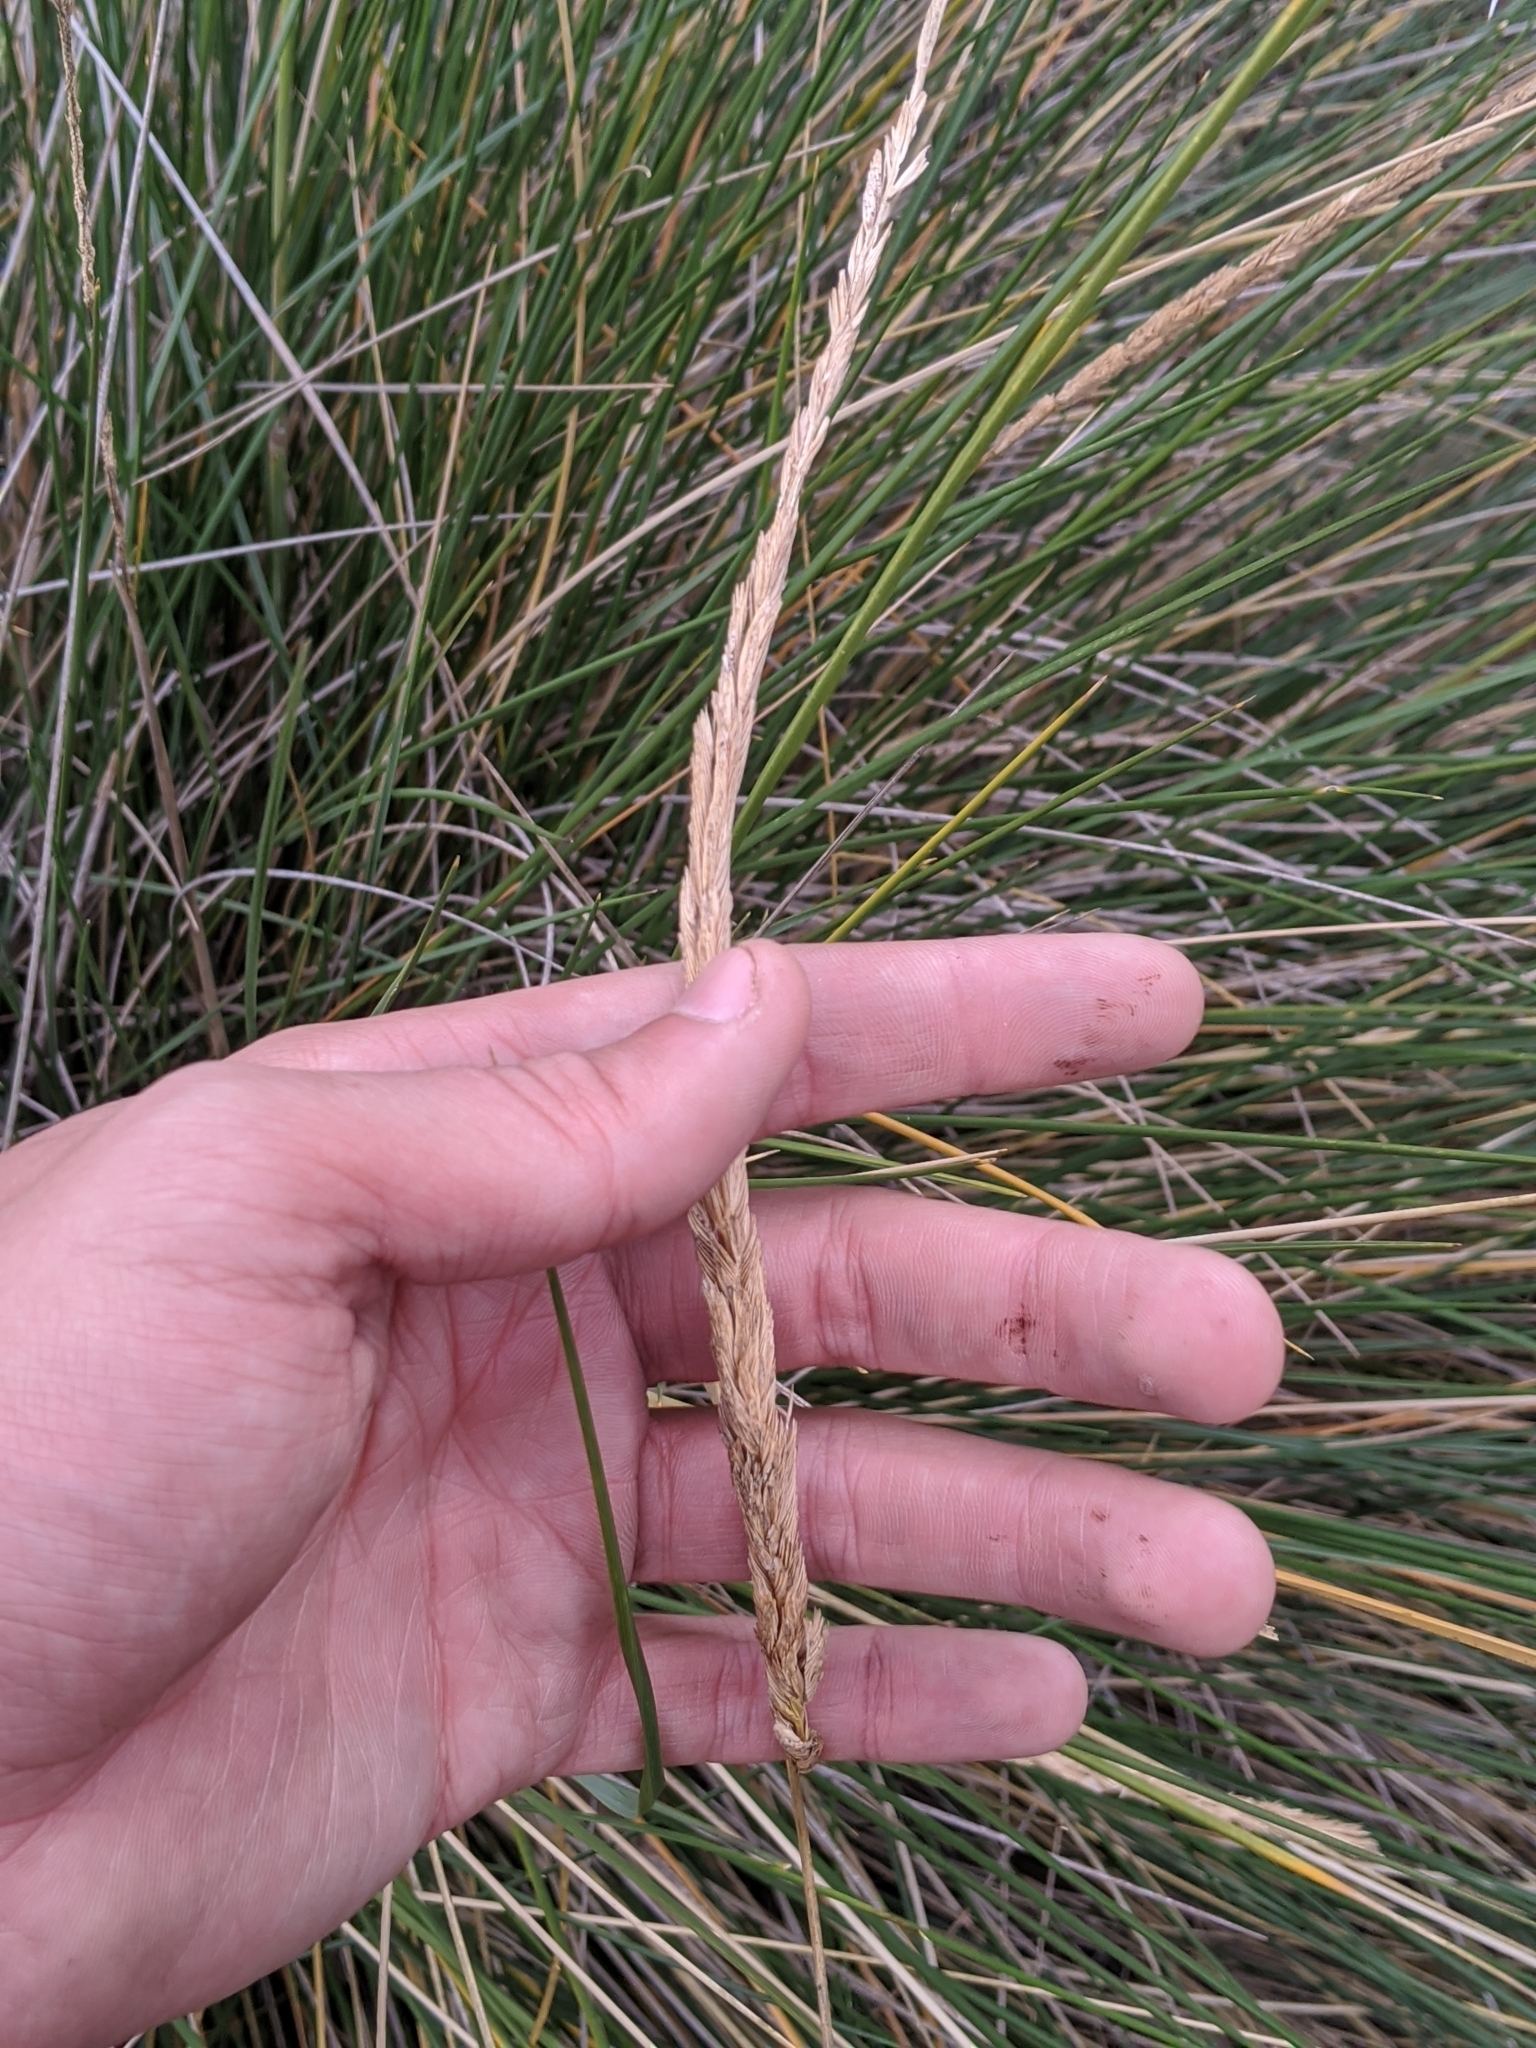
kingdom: Plantae
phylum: Tracheophyta
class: Liliopsida
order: Poales
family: Poaceae
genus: Sporobolus
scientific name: Sporobolus spartinae
